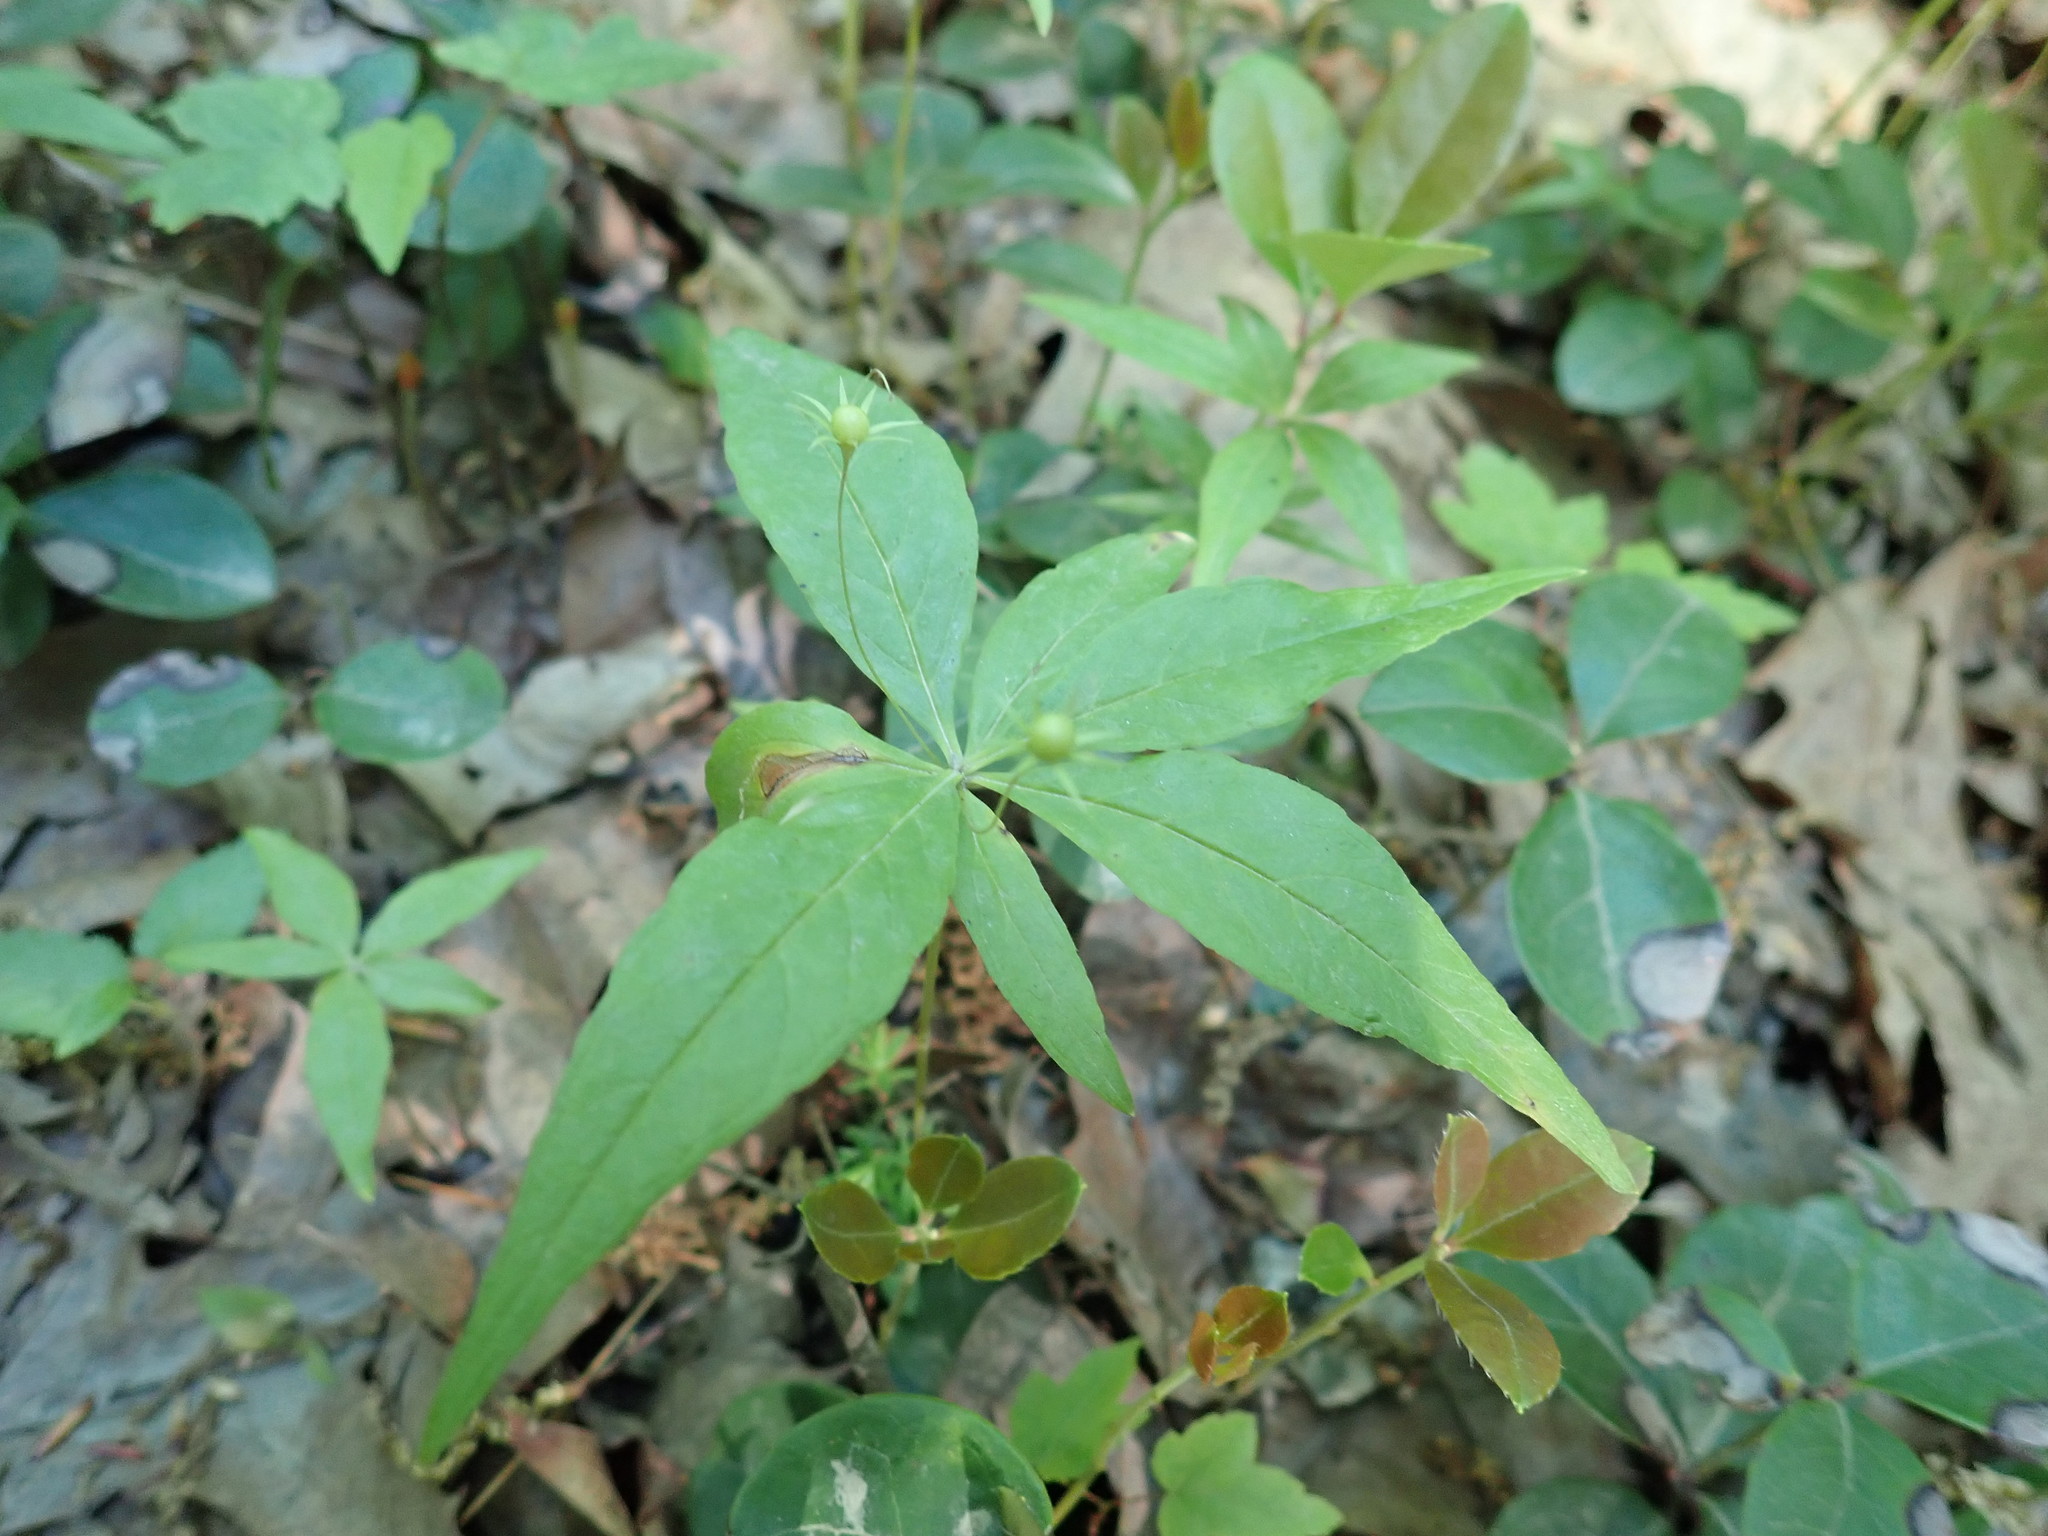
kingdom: Plantae
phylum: Tracheophyta
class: Magnoliopsida
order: Ericales
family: Primulaceae
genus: Lysimachia
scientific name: Lysimachia borealis
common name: American starflower
